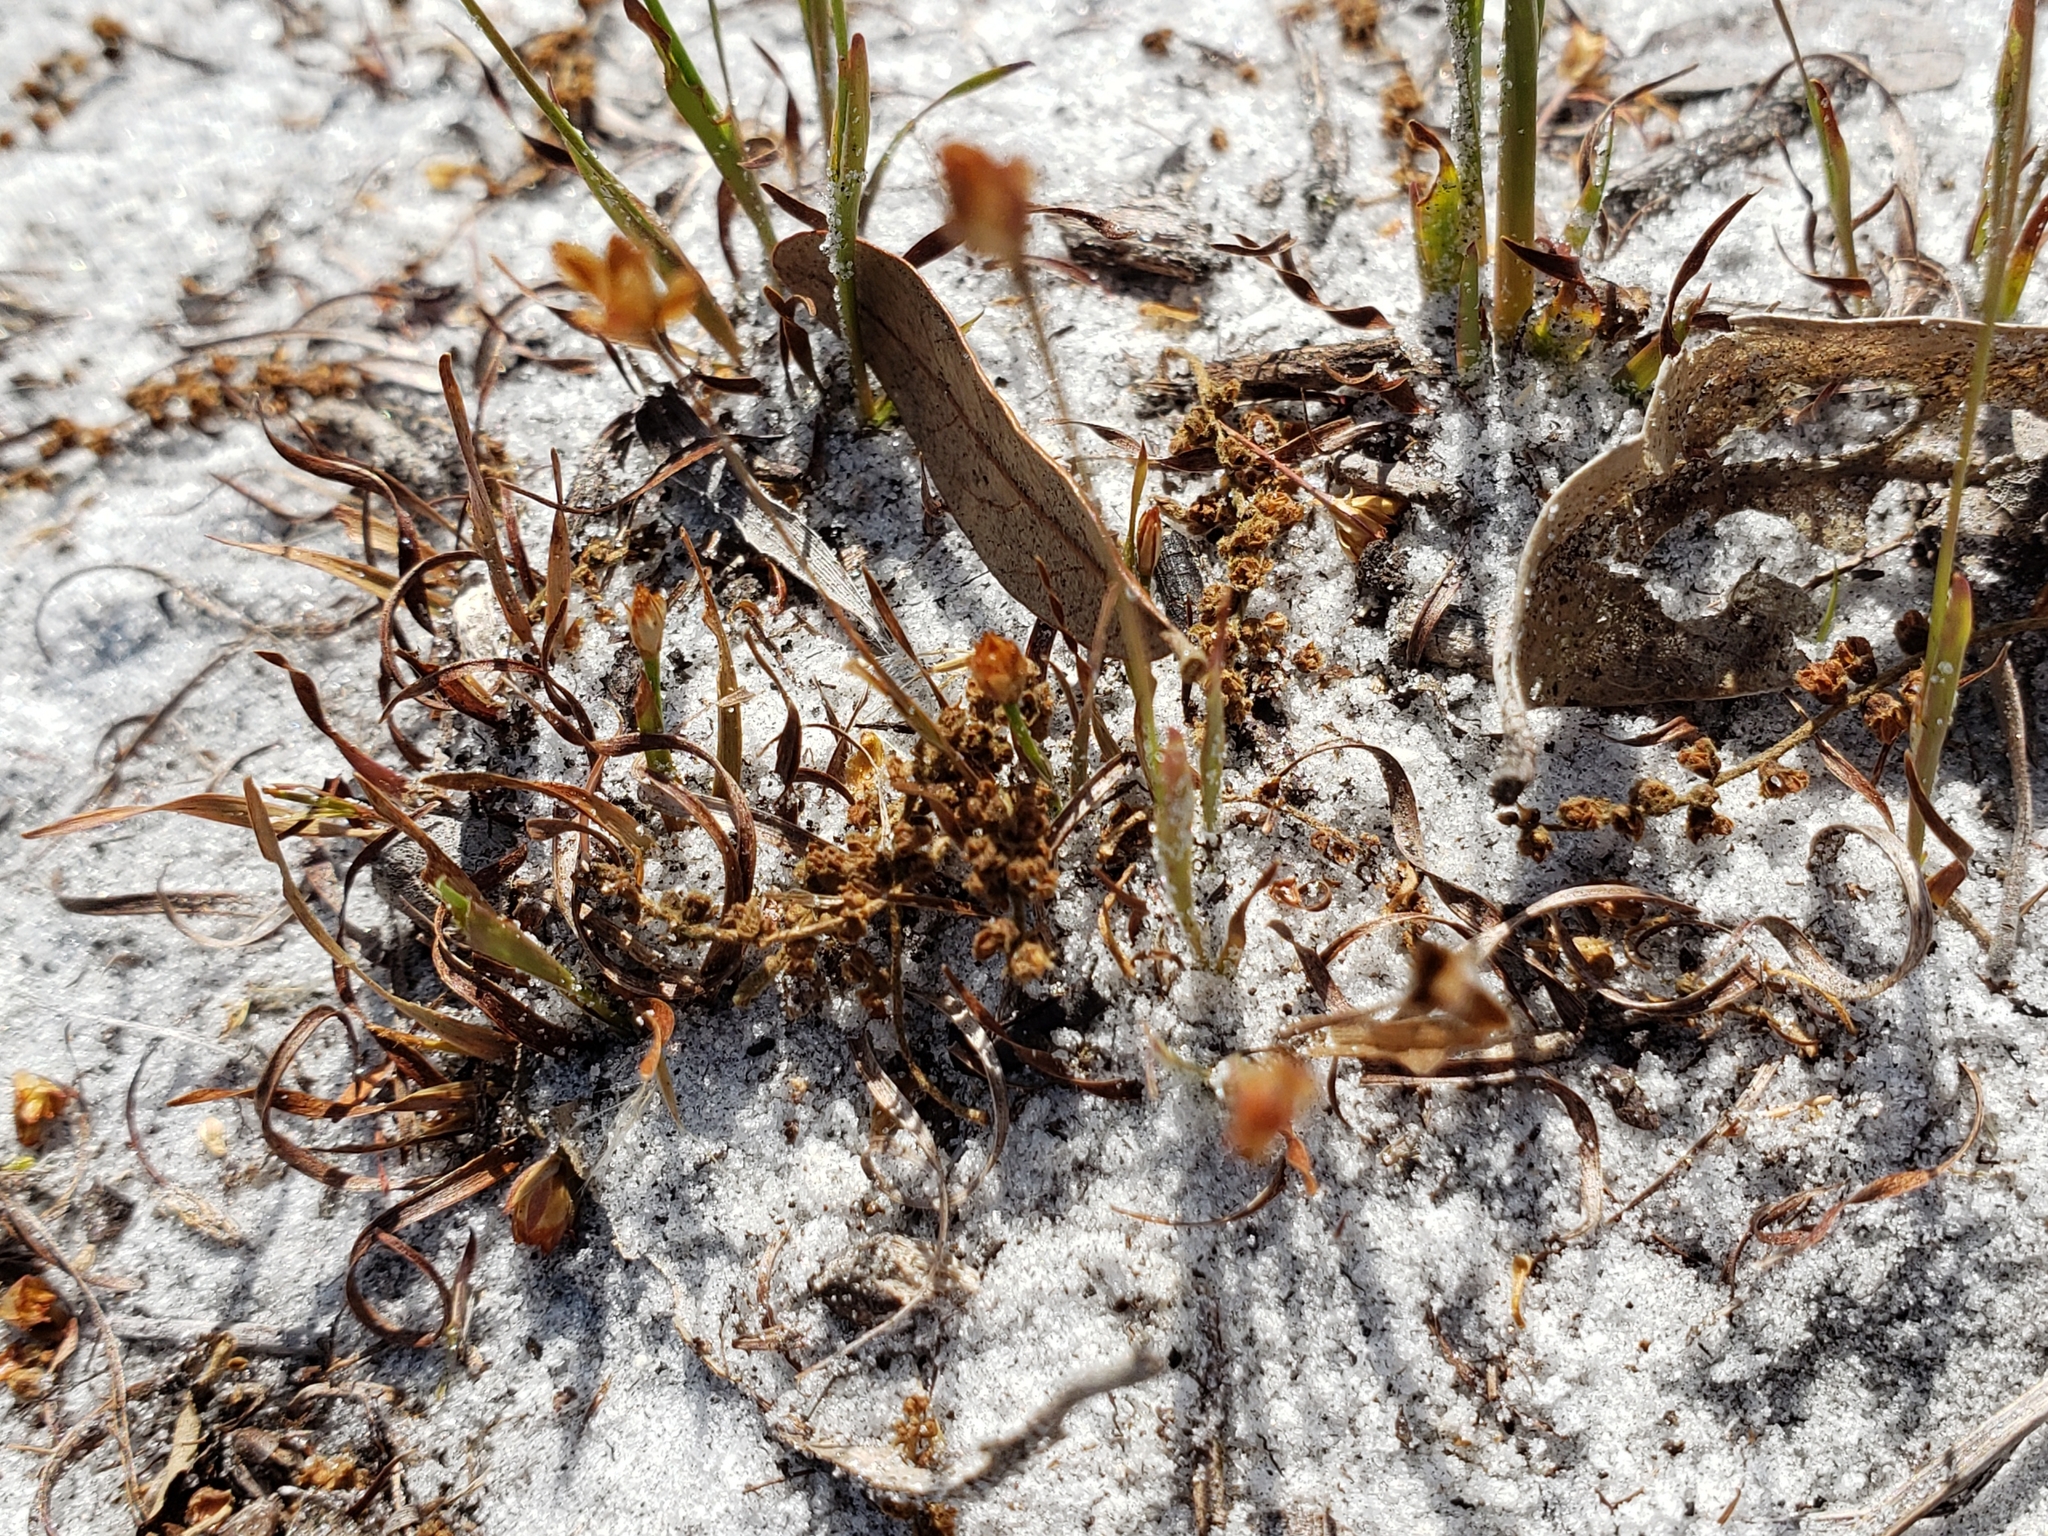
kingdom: Plantae
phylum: Tracheophyta
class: Liliopsida
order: Poales
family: Xyridaceae
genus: Xyris
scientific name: Xyris brevifolia
